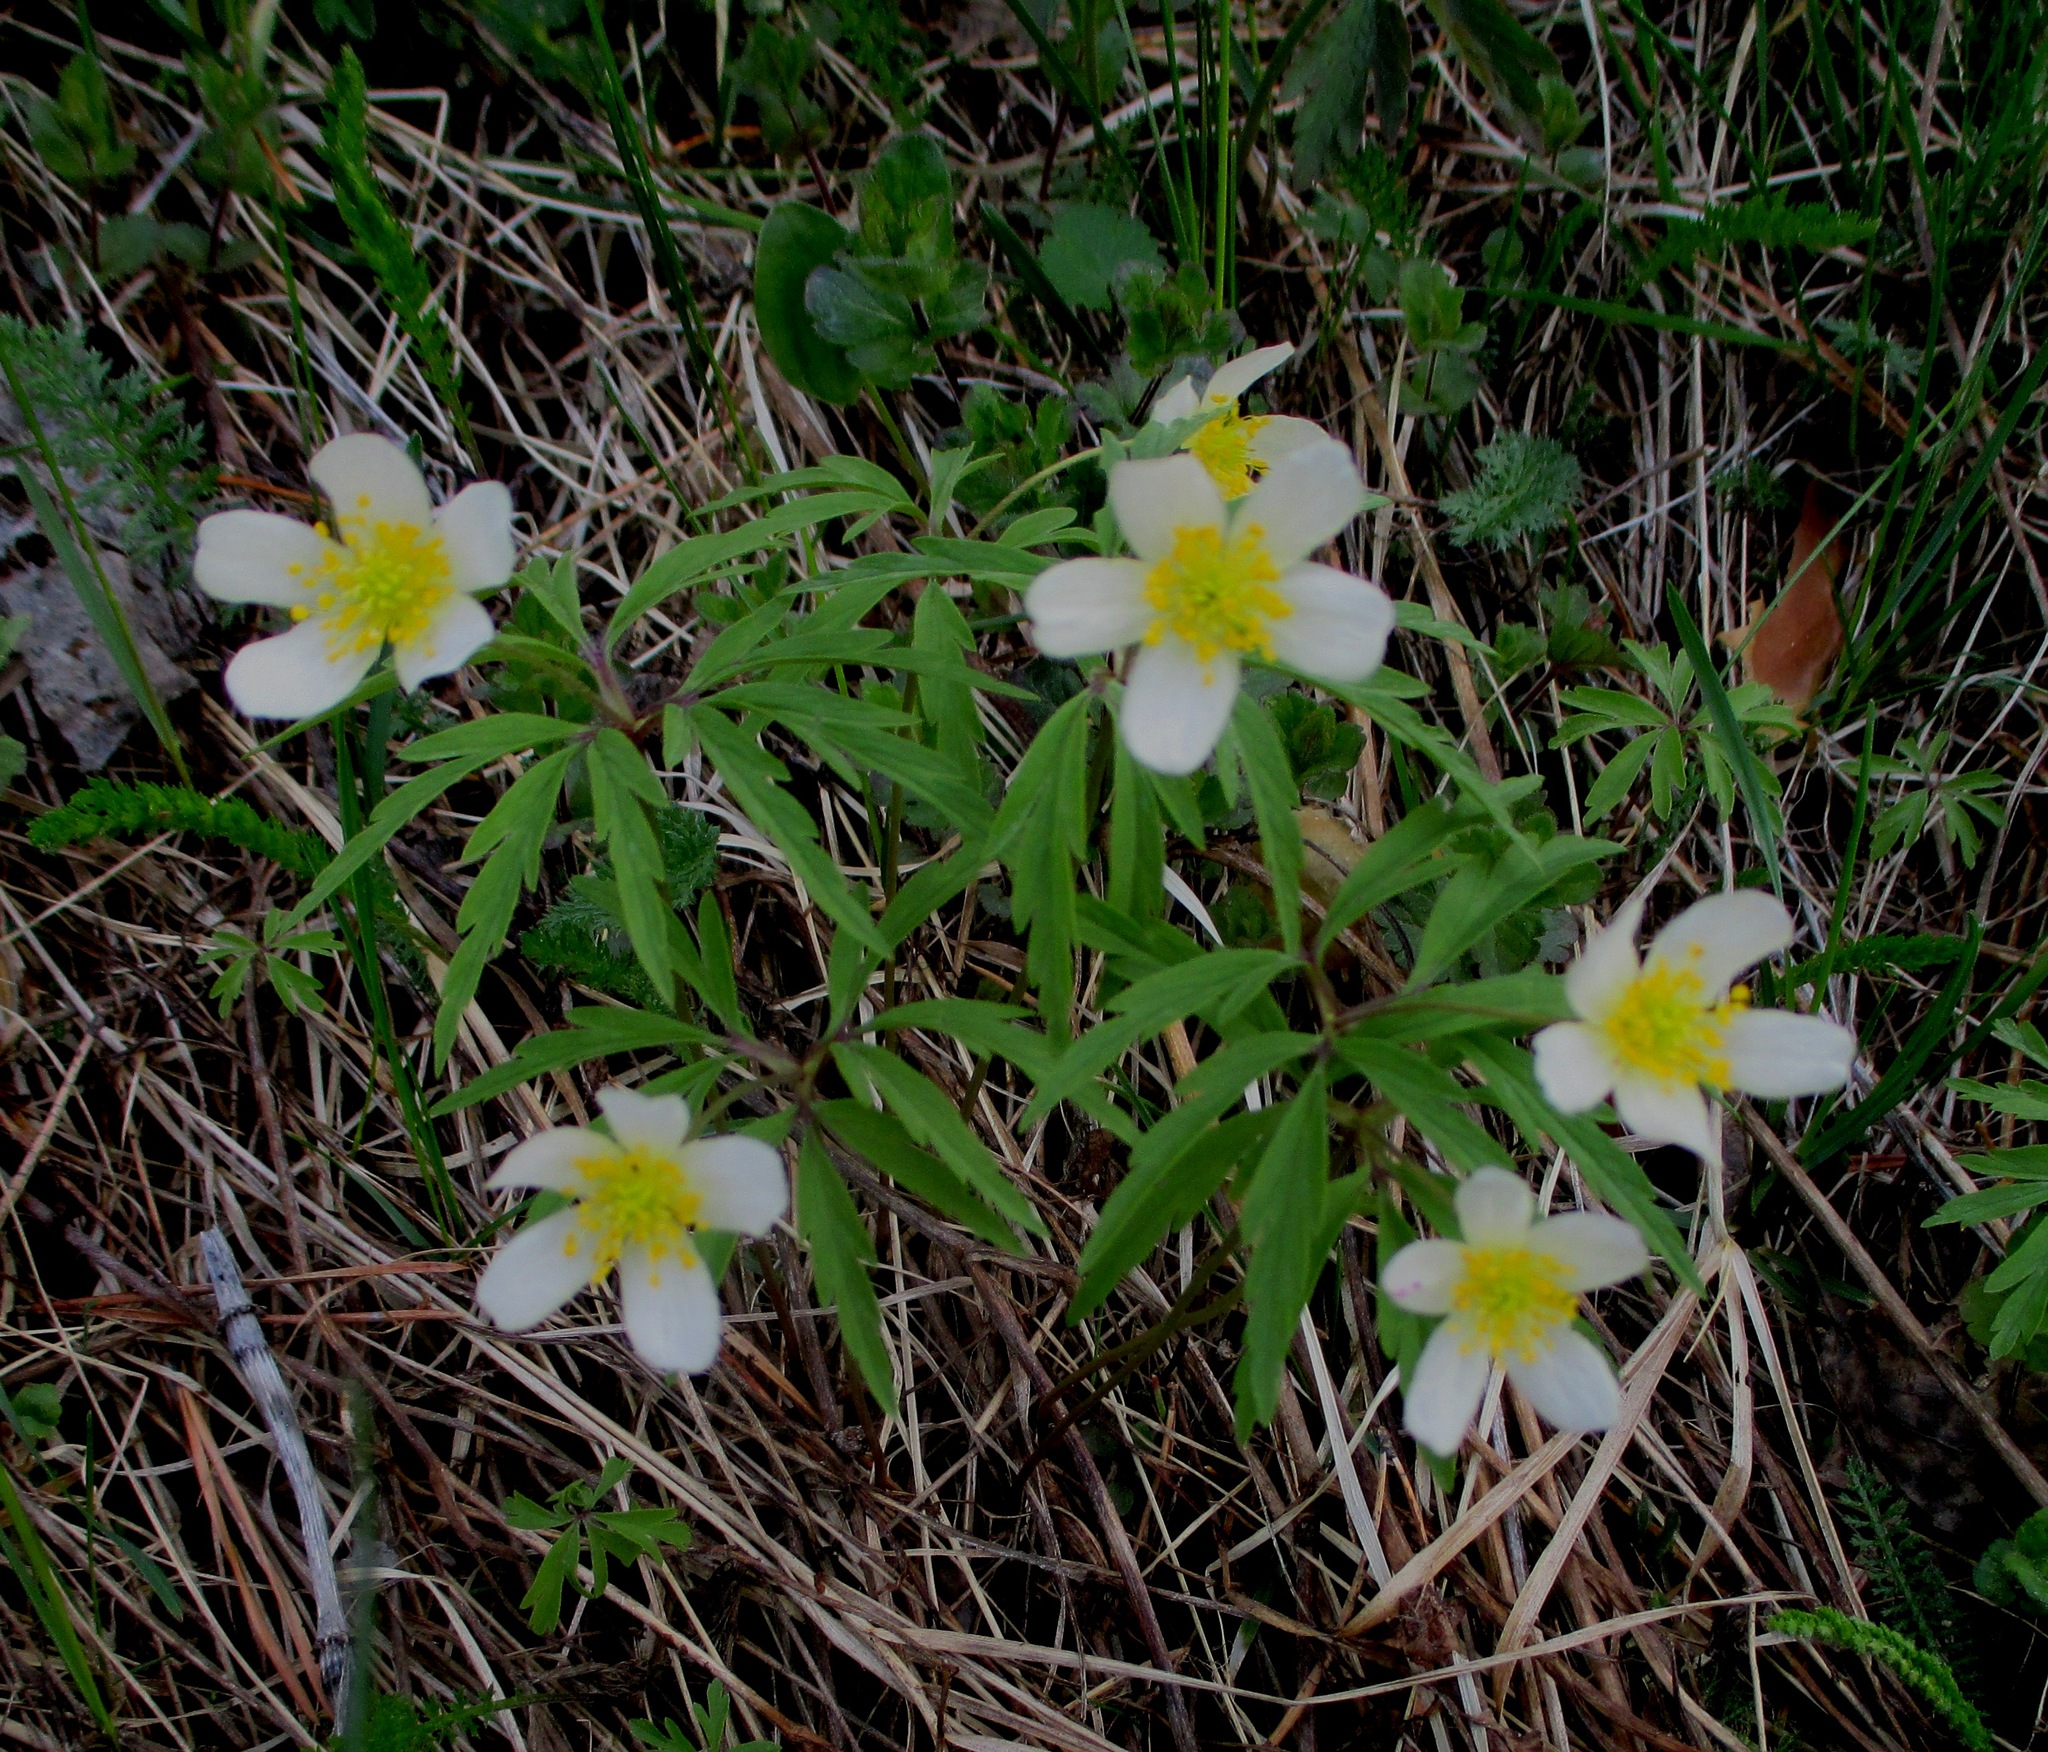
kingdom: Plantae
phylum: Tracheophyta
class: Magnoliopsida
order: Ranunculales
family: Ranunculaceae
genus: Anemone
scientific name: Anemone uralensis
